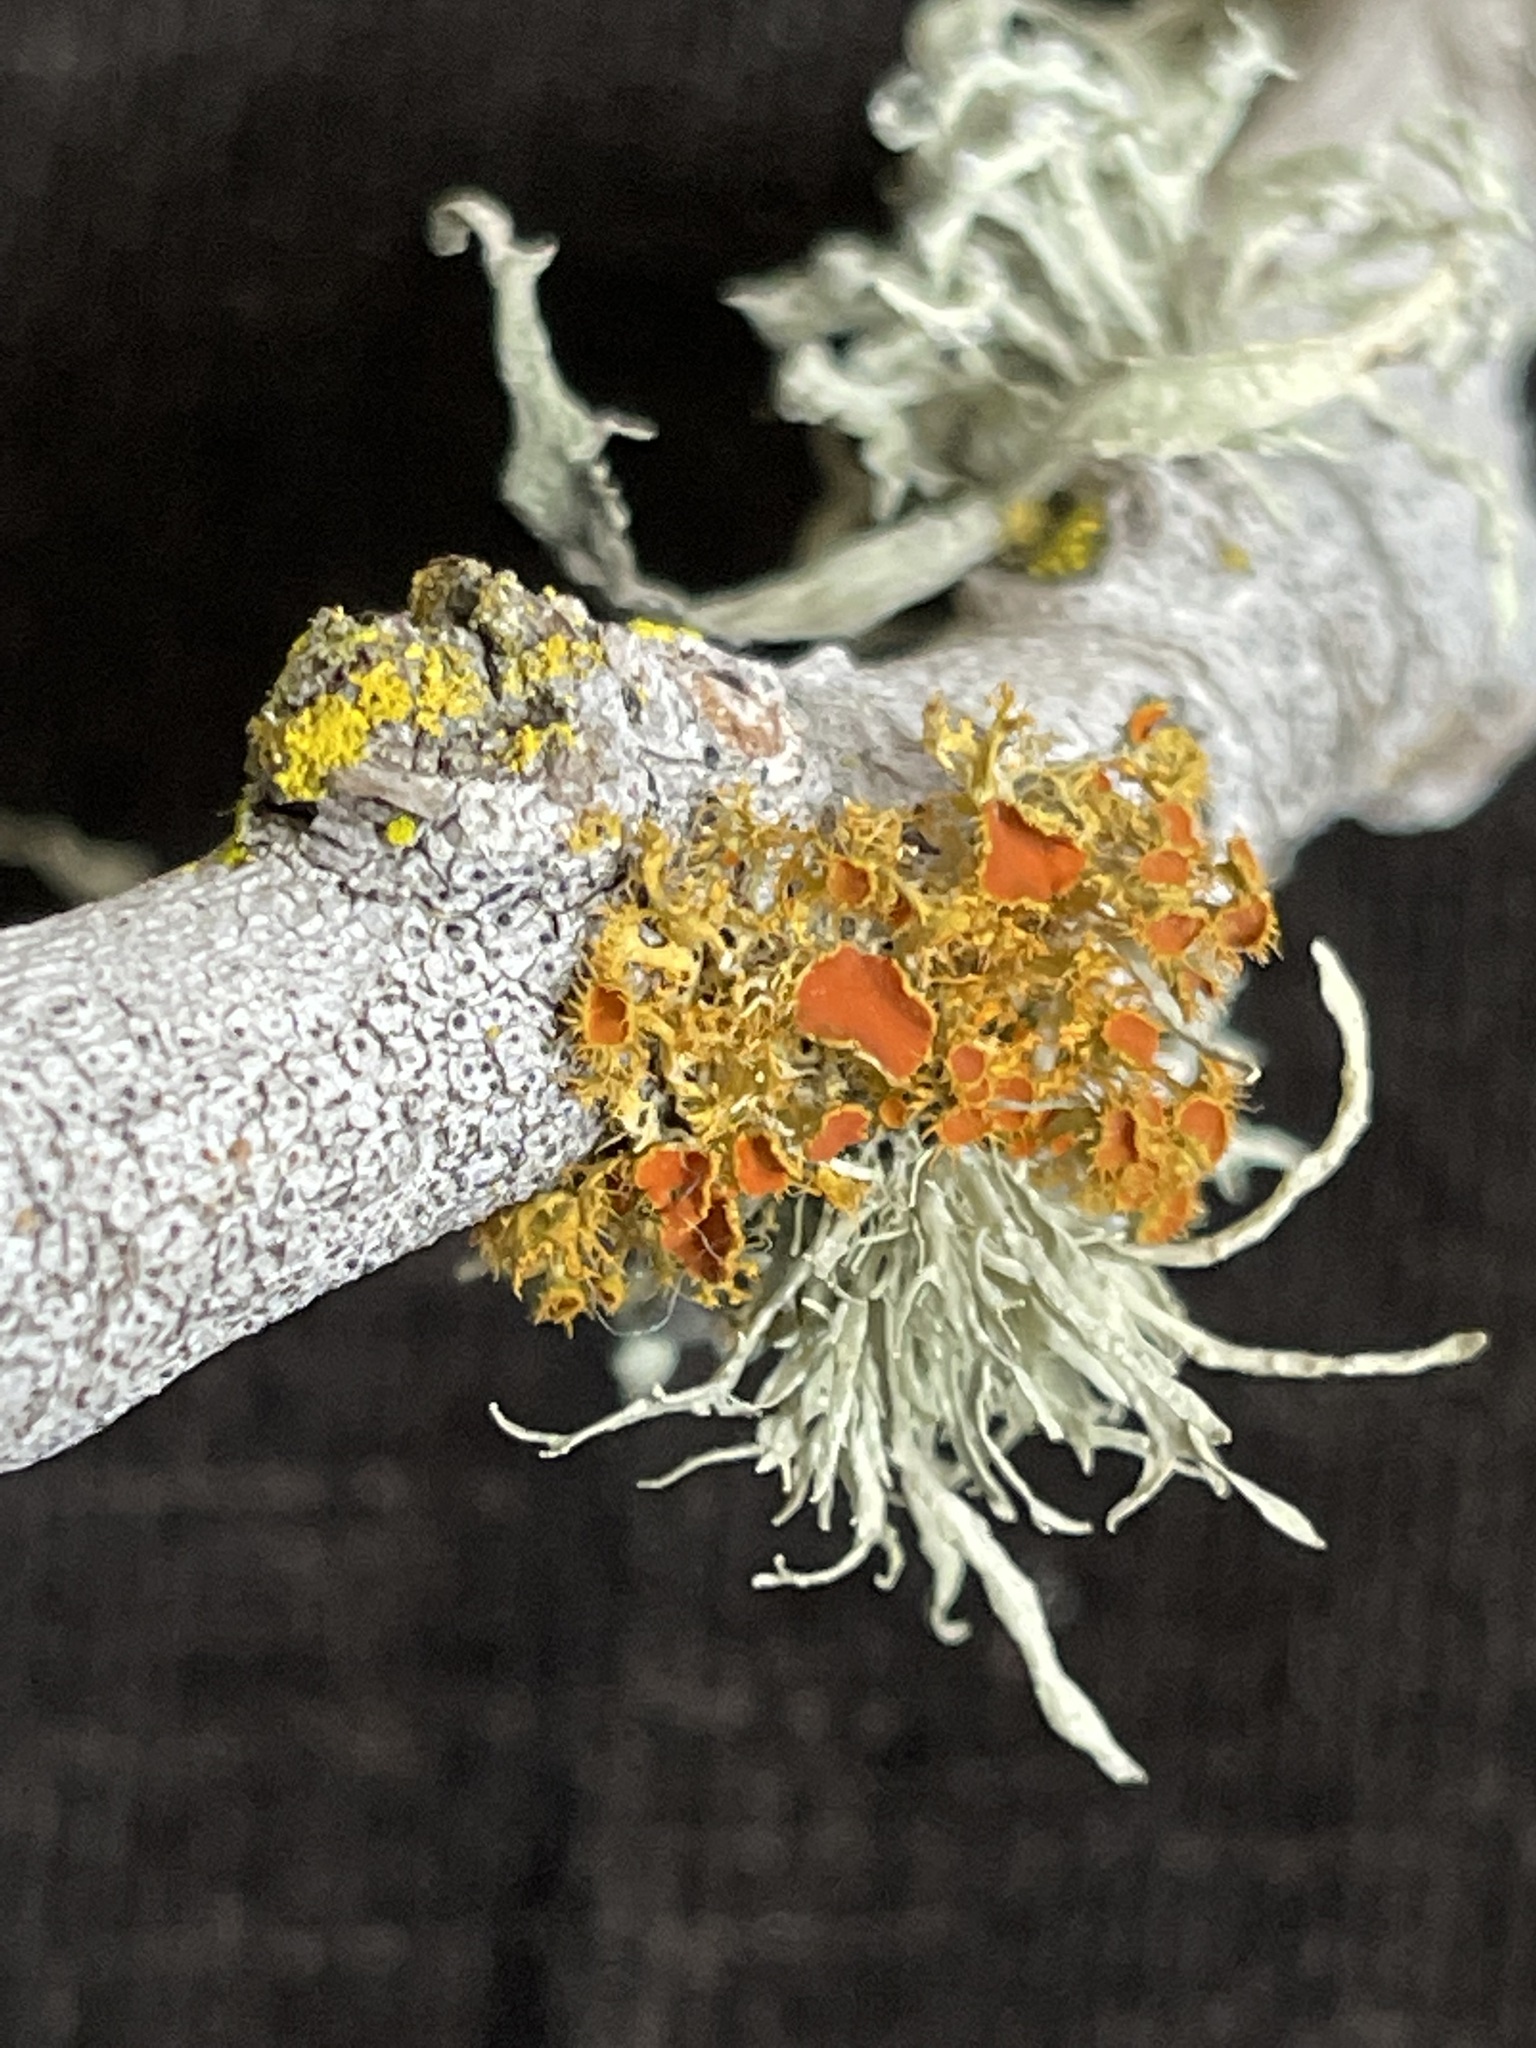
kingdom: Fungi
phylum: Ascomycota
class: Lecanoromycetes
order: Teloschistales
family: Teloschistaceae
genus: Niorma
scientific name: Niorma chrysophthalma
